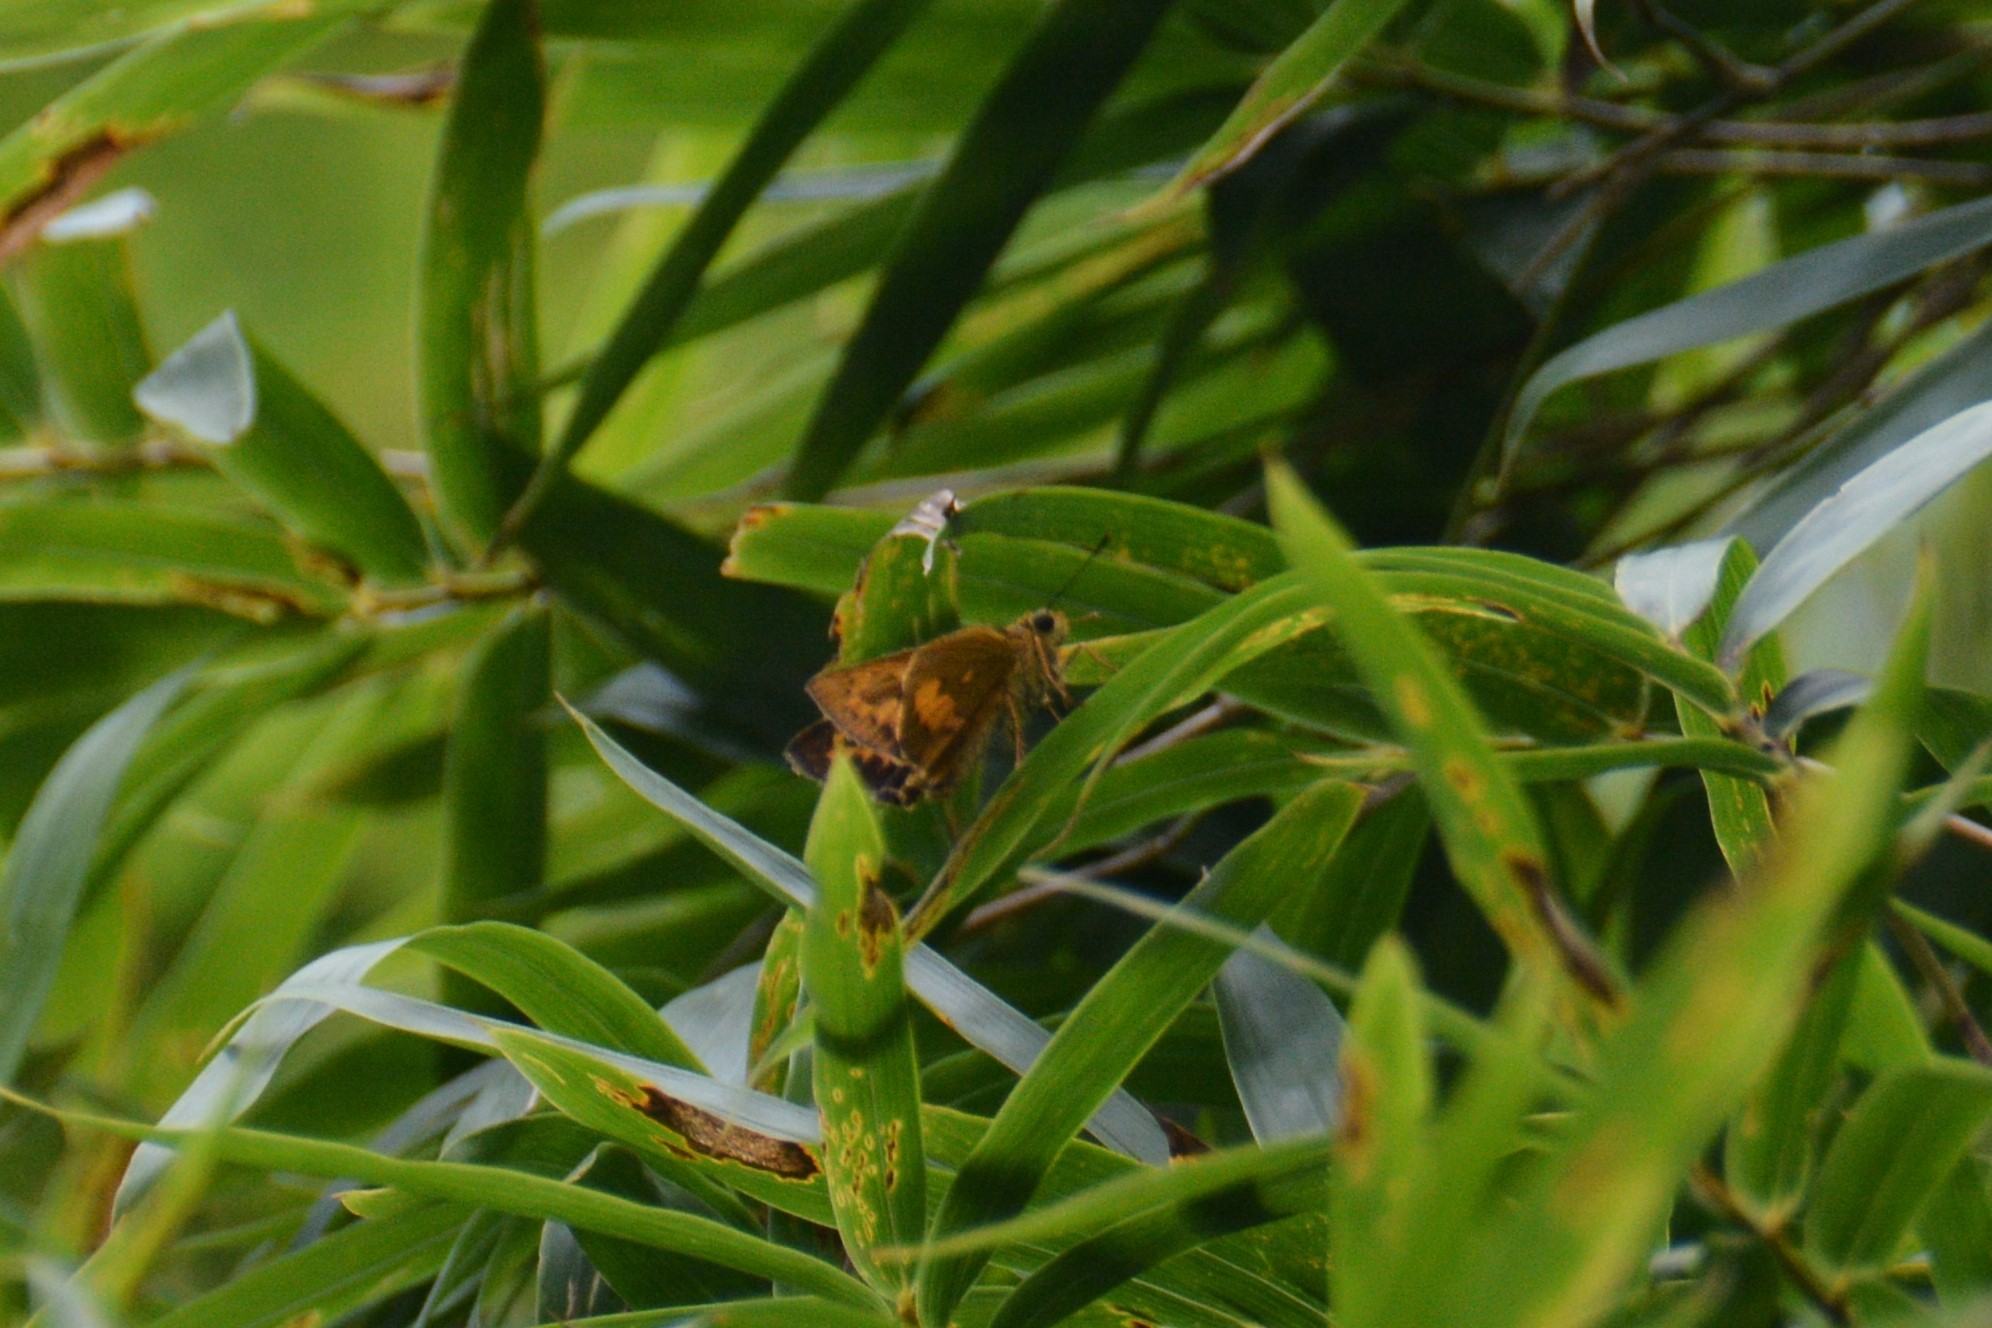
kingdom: Animalia
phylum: Arthropoda
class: Insecta
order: Lepidoptera
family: Hesperiidae
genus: Telicota
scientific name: Telicota ohara
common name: Dark palm dart
